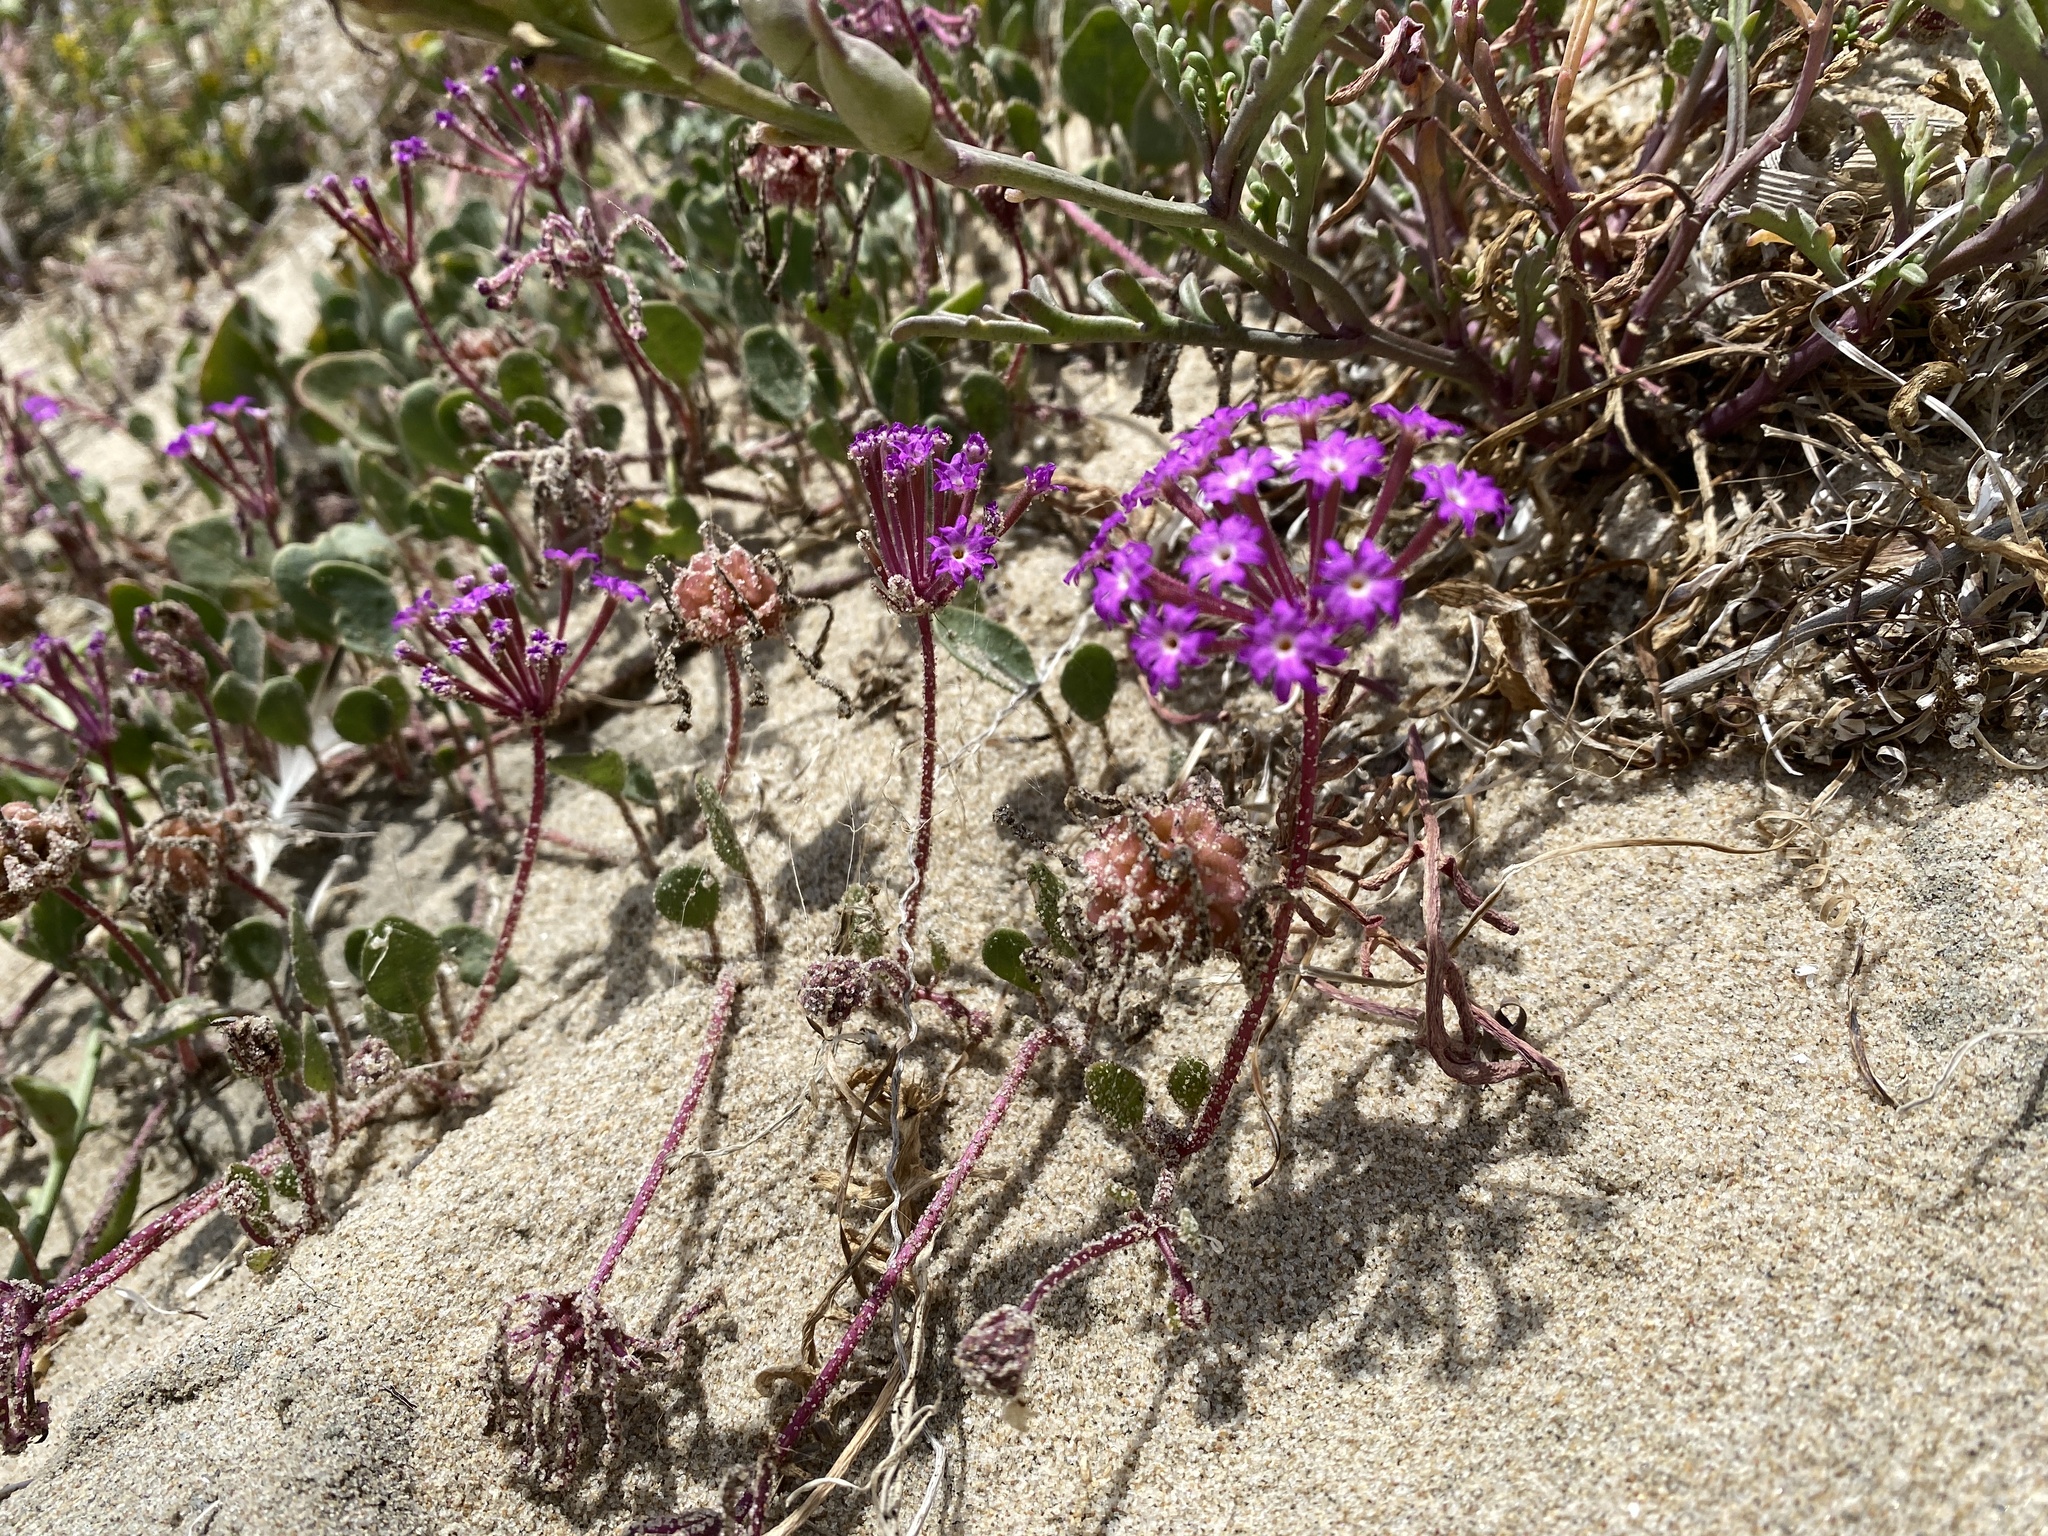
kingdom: Plantae
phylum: Tracheophyta
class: Magnoliopsida
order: Caryophyllales
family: Nyctaginaceae
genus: Abronia
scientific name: Abronia umbellata
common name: Sand-verbena
